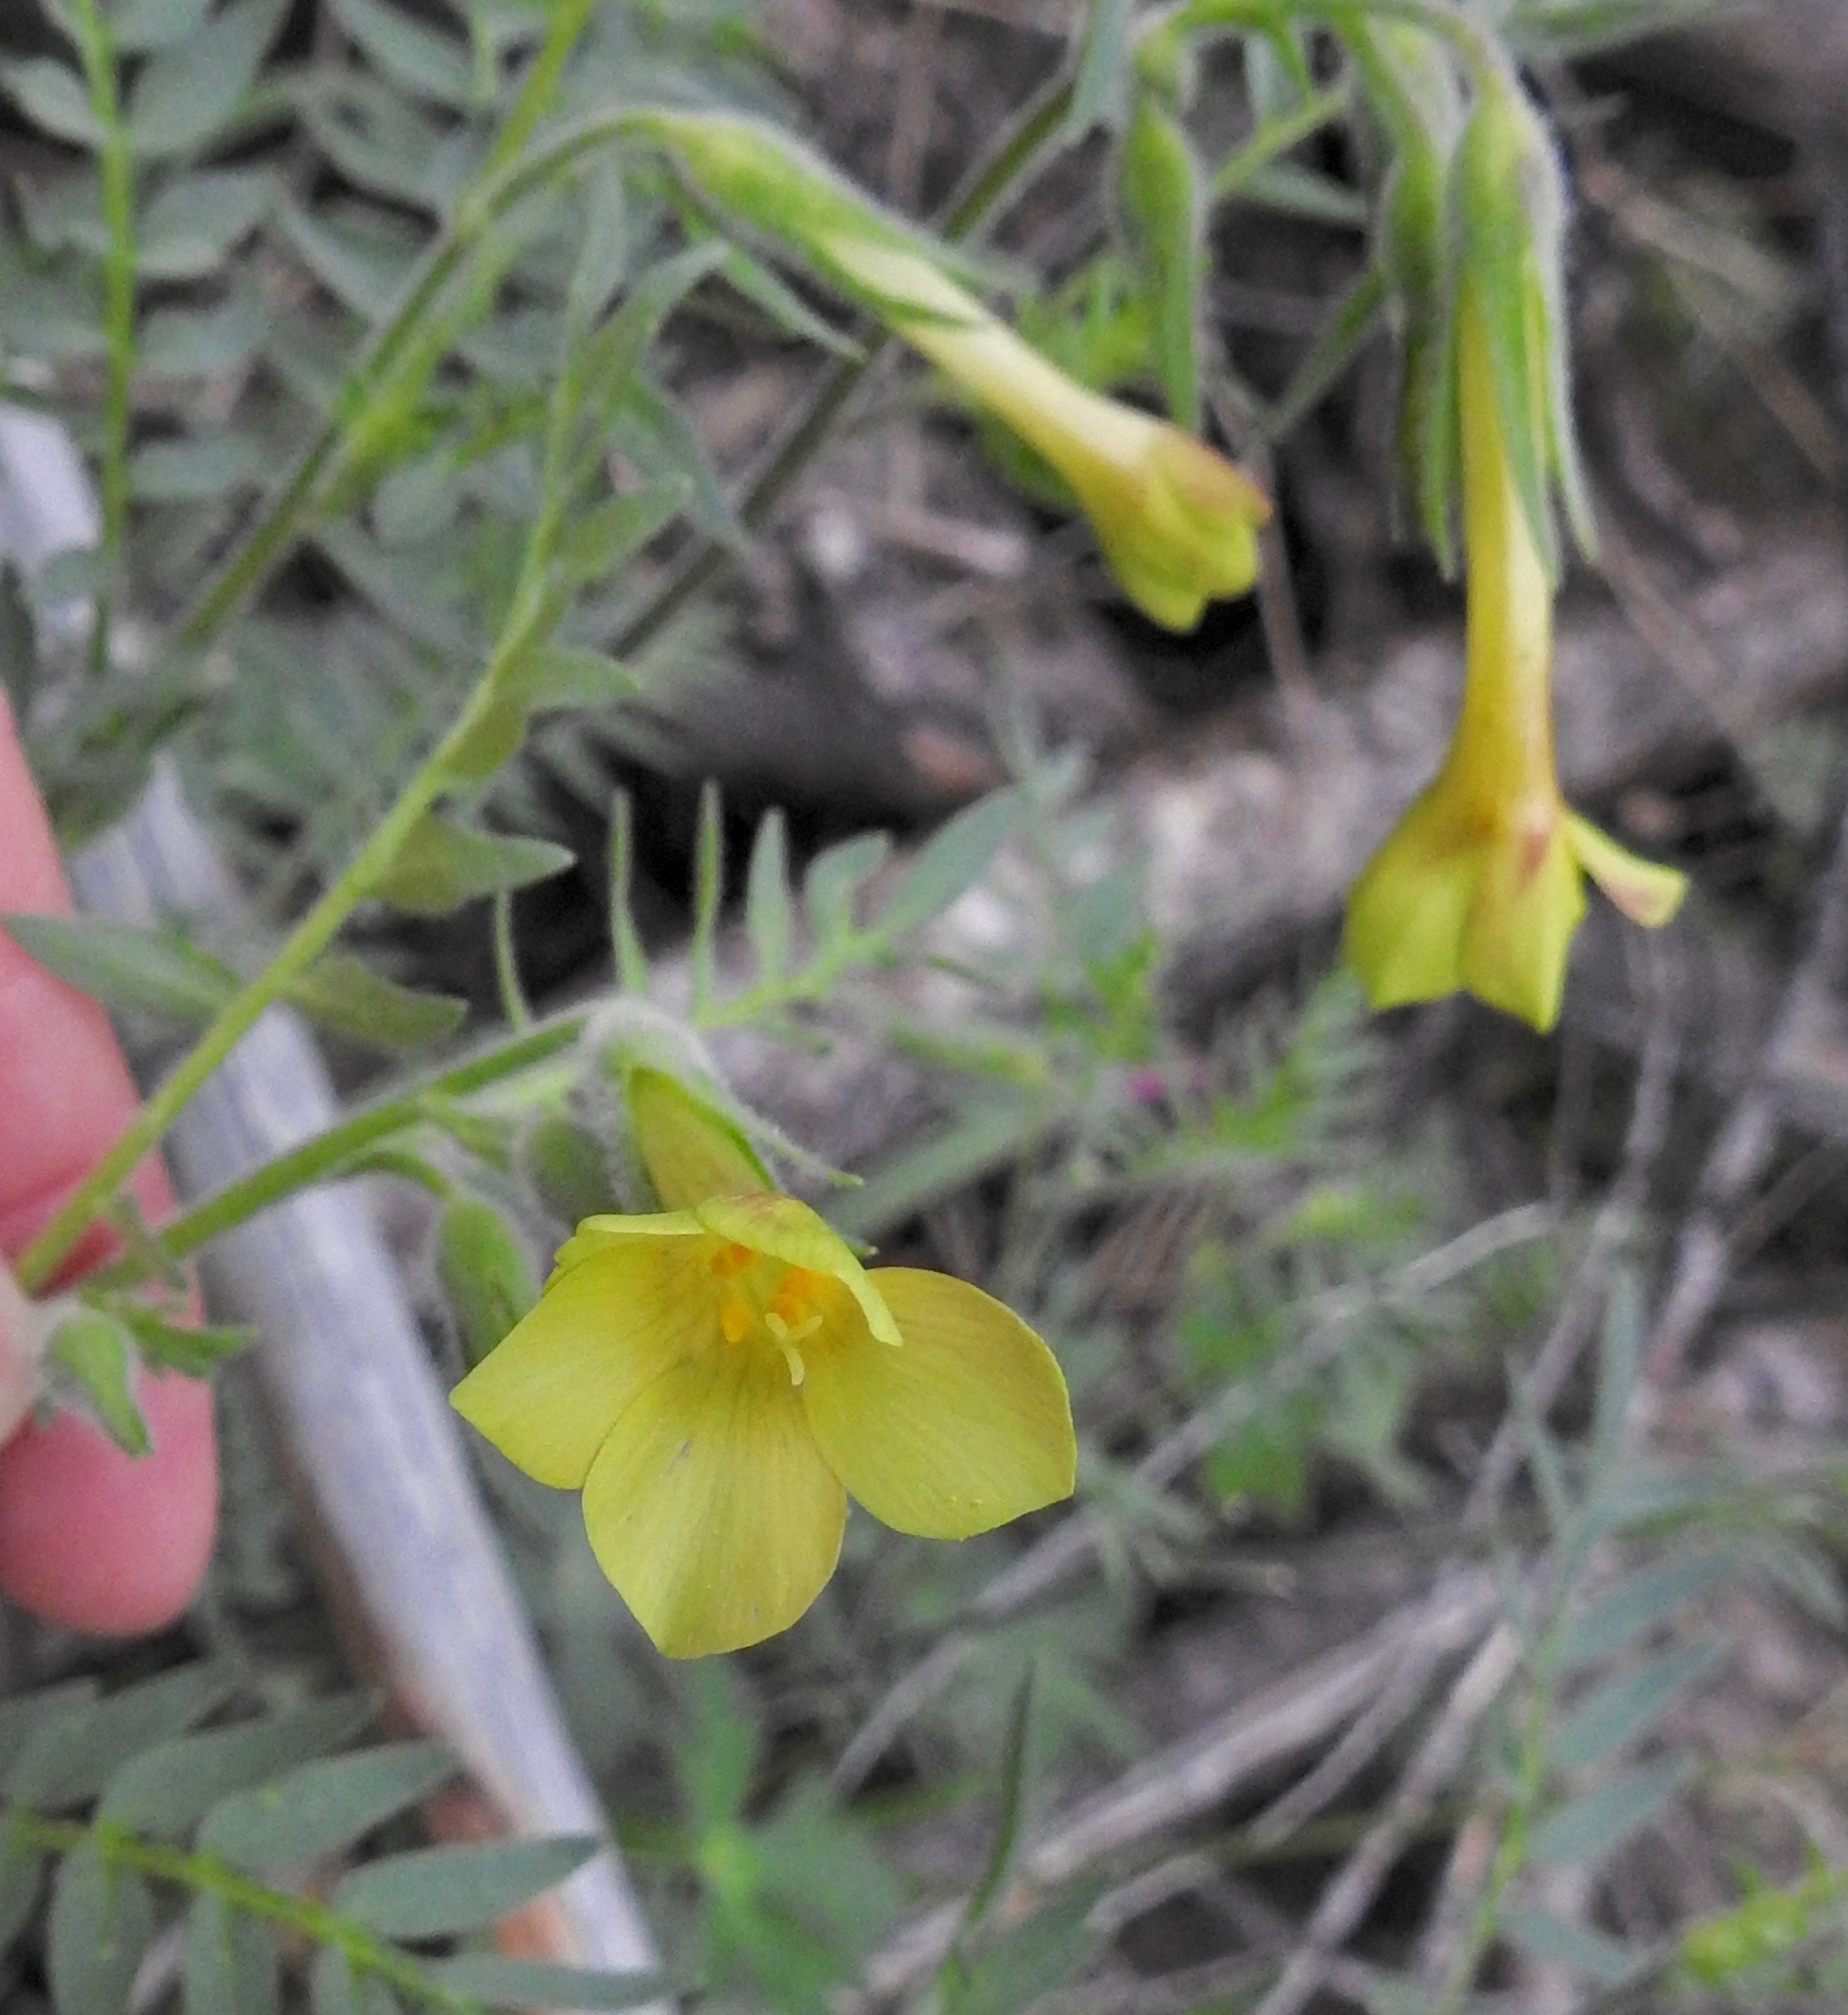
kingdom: Plantae
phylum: Tracheophyta
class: Magnoliopsida
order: Ericales
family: Polemoniaceae
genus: Polemonium
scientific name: Polemonium pauciflorum
